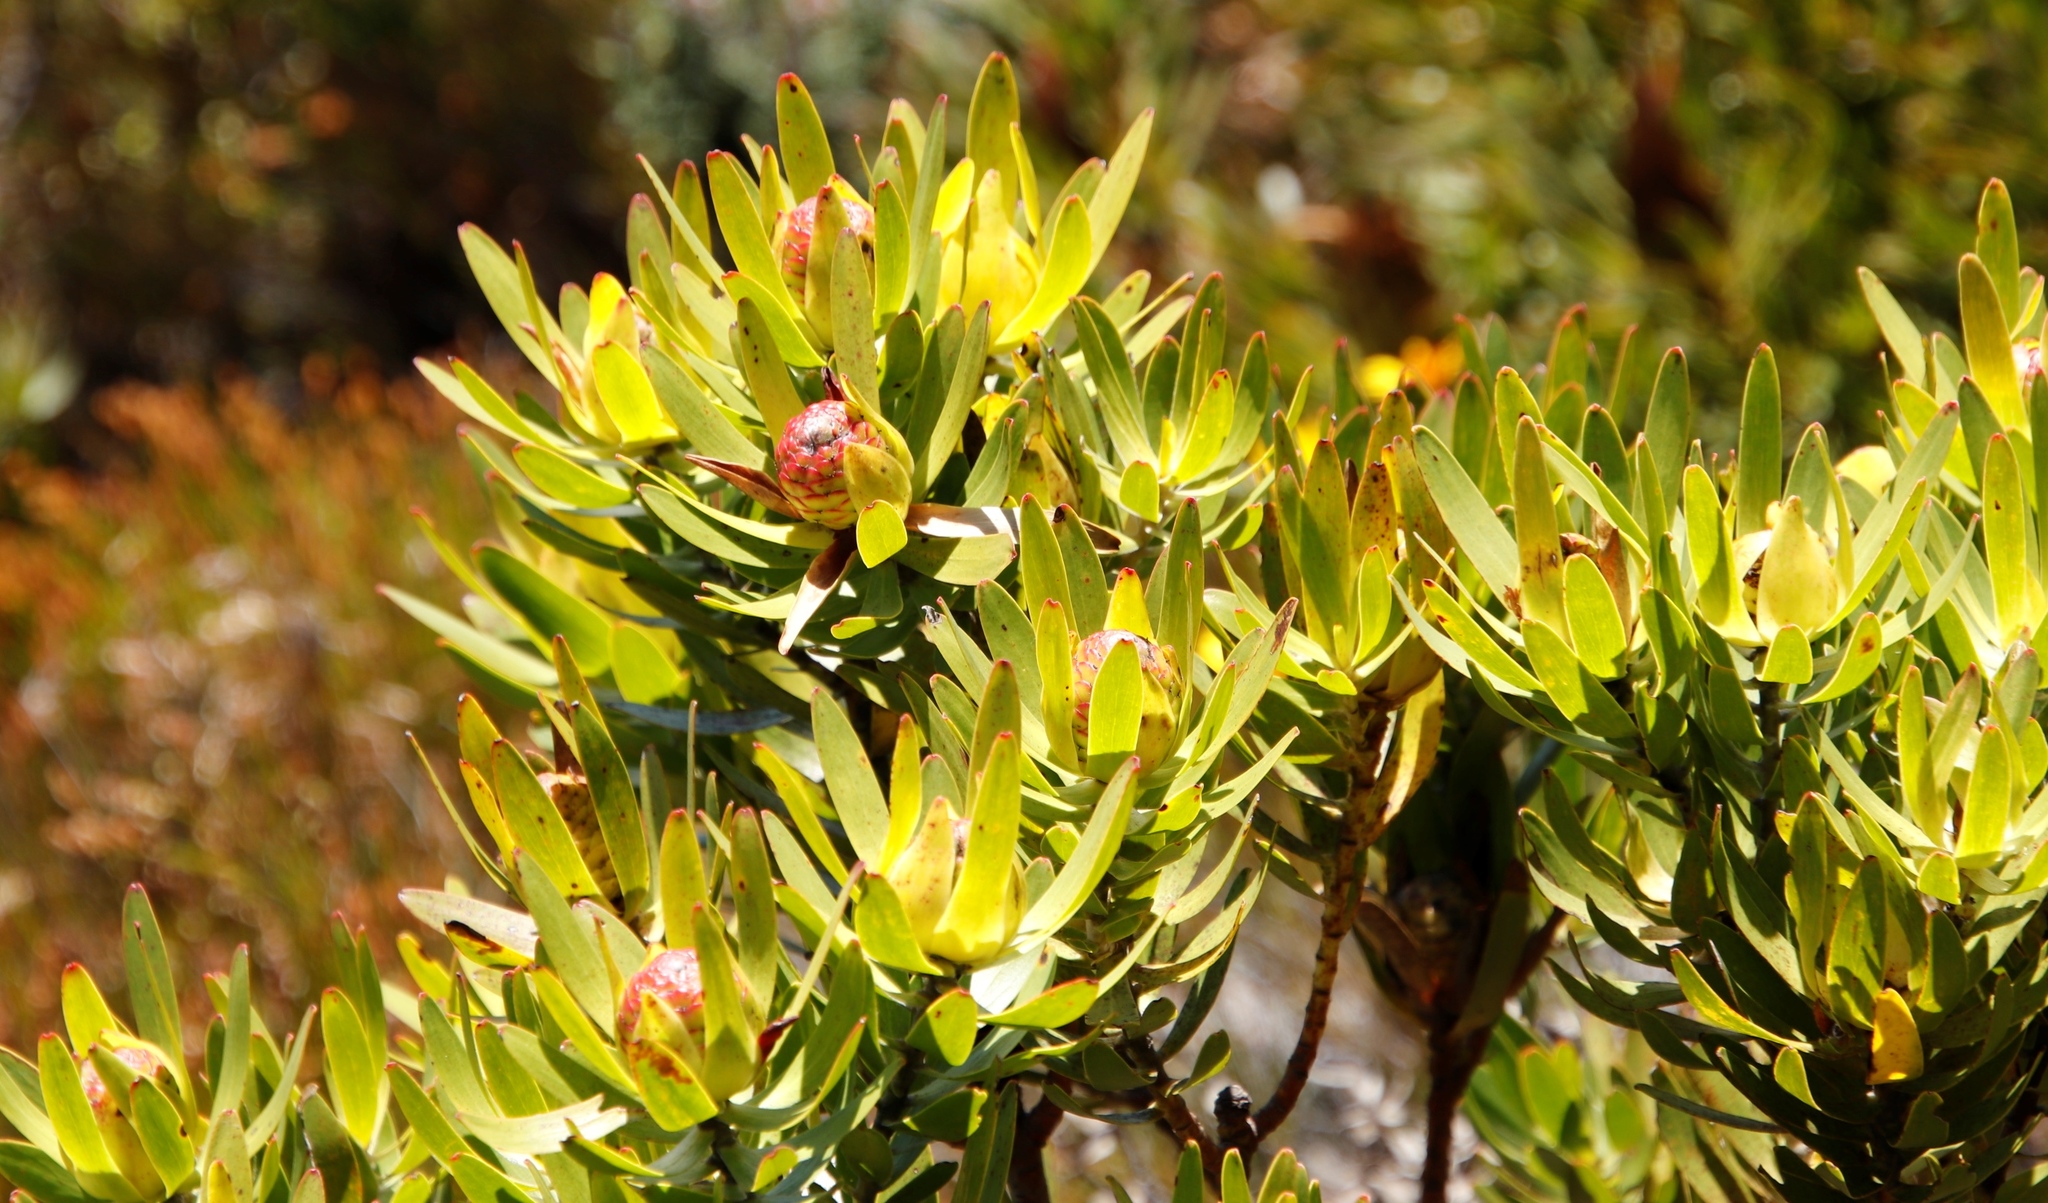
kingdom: Plantae
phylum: Tracheophyta
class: Magnoliopsida
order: Proteales
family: Proteaceae
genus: Leucadendron
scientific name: Leucadendron laureolum
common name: Golden sunshinebush
